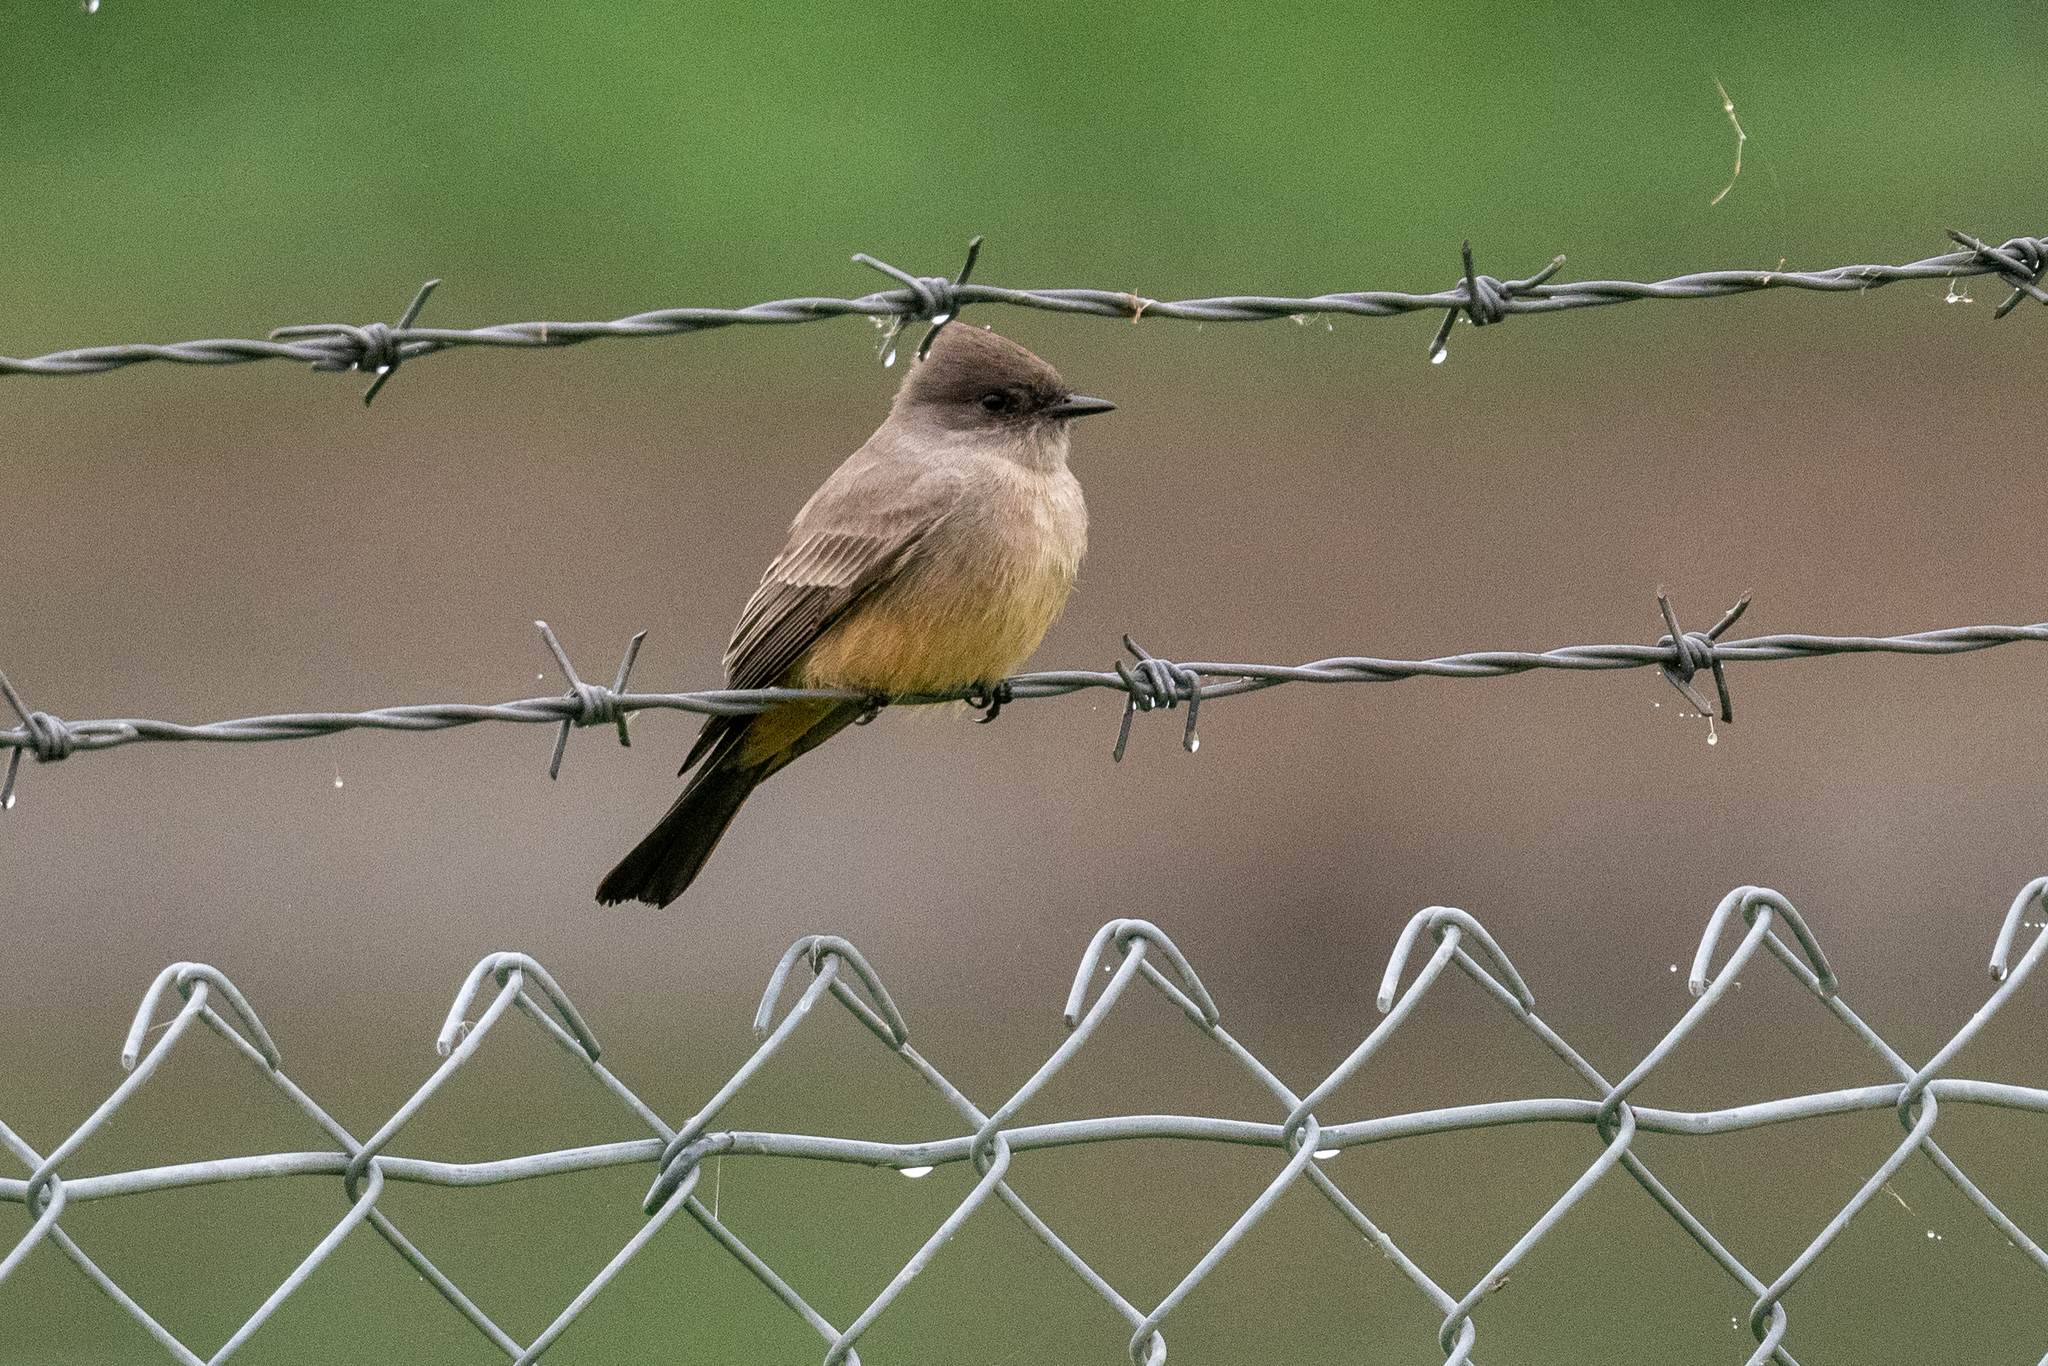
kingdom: Animalia
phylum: Chordata
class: Aves
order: Passeriformes
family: Tyrannidae
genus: Sayornis
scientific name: Sayornis saya
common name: Say's phoebe
